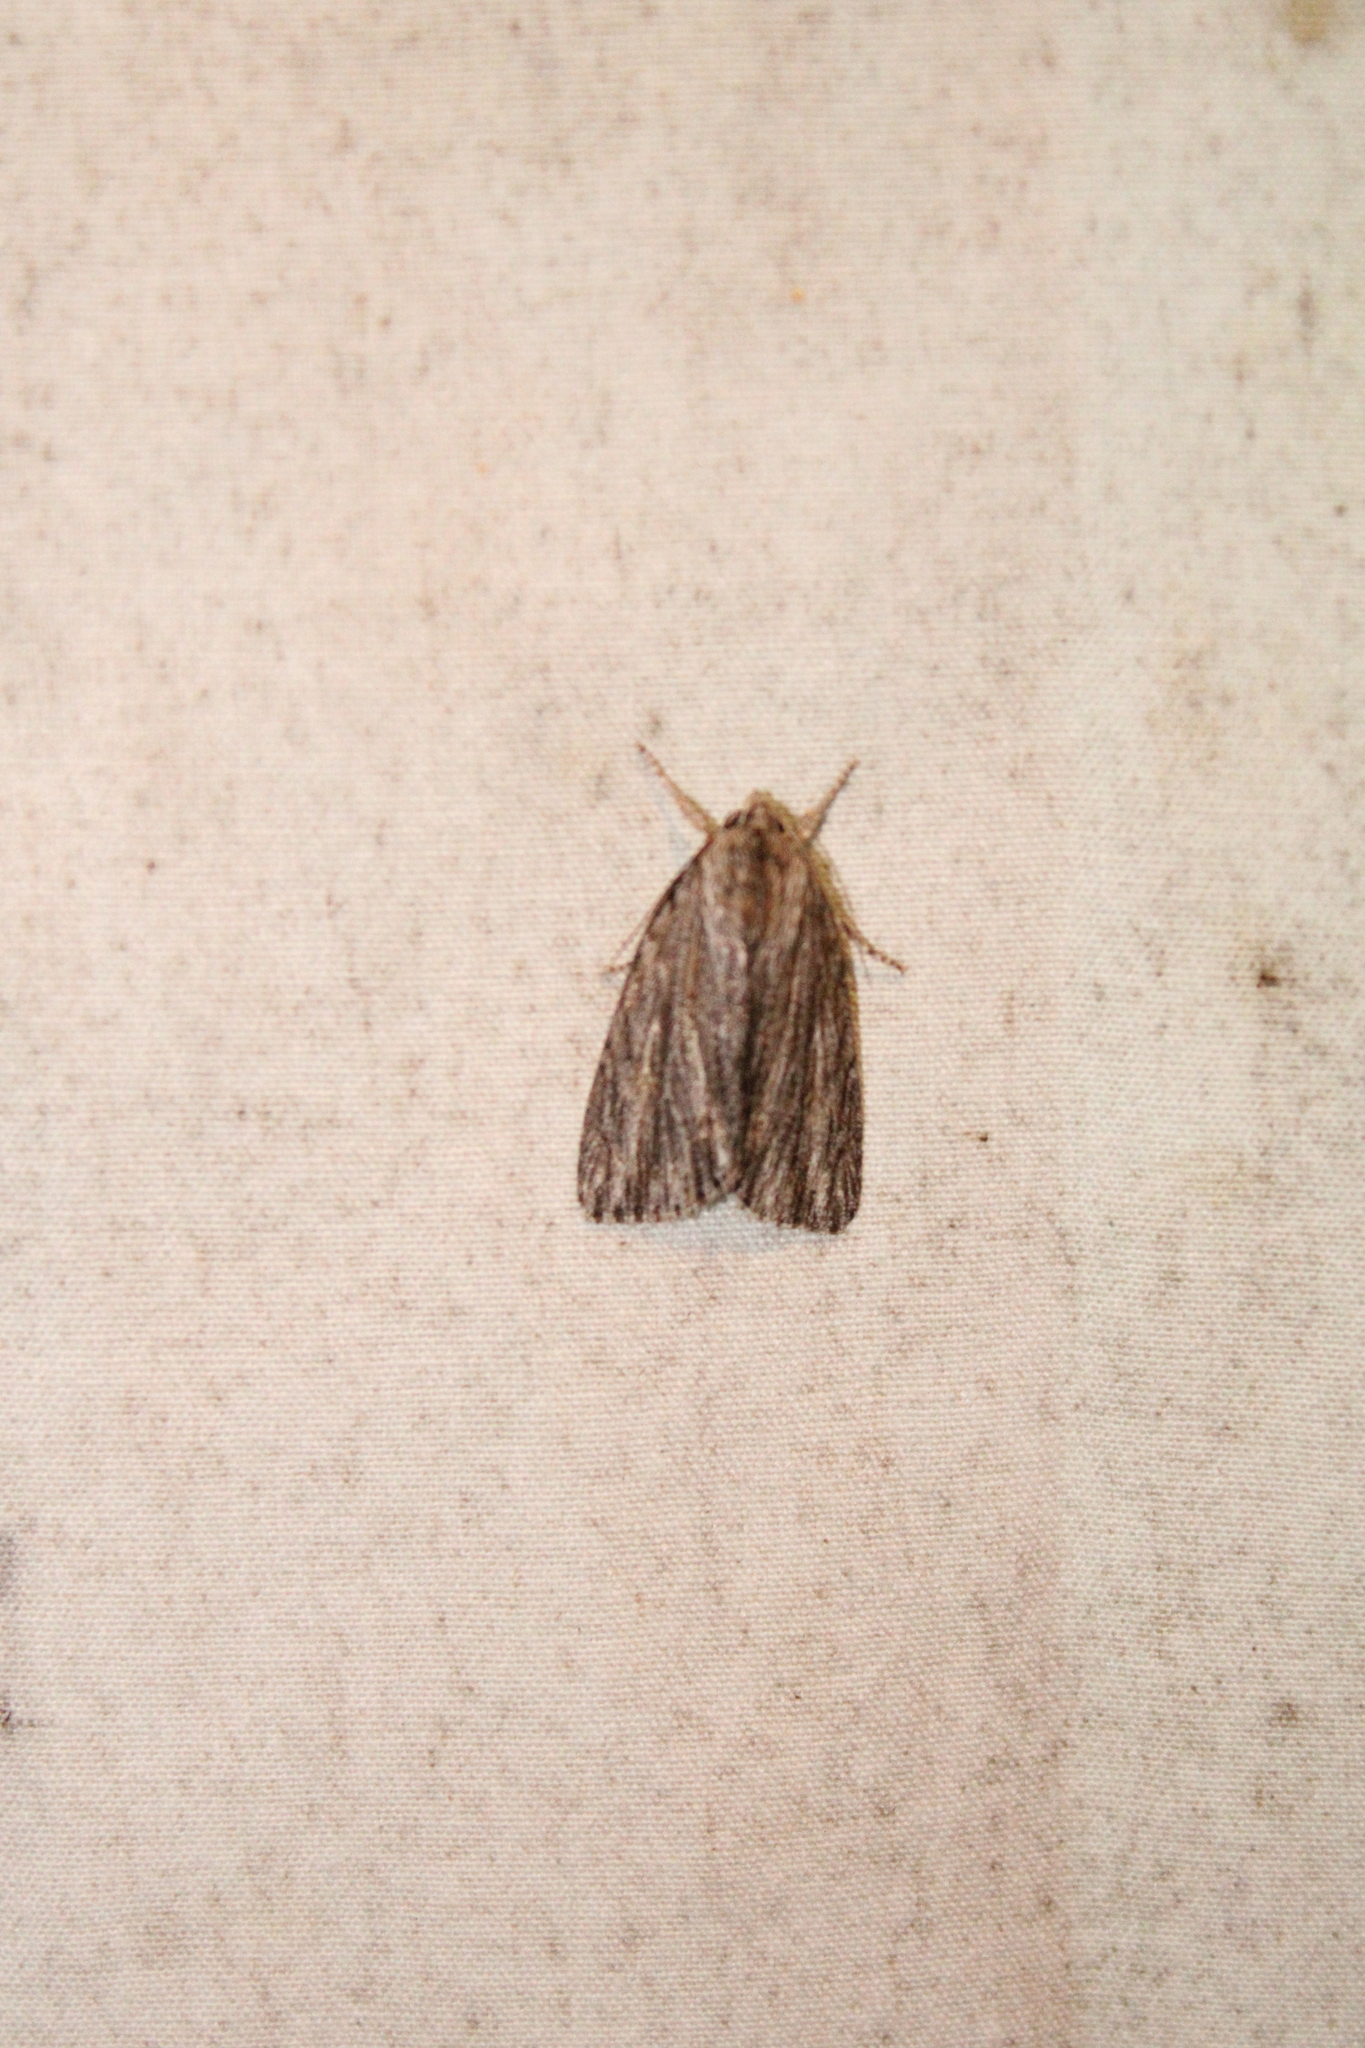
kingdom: Animalia
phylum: Arthropoda
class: Insecta
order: Lepidoptera
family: Noctuidae
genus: Acronicta
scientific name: Acronicta lithospila
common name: Streaked dagger
